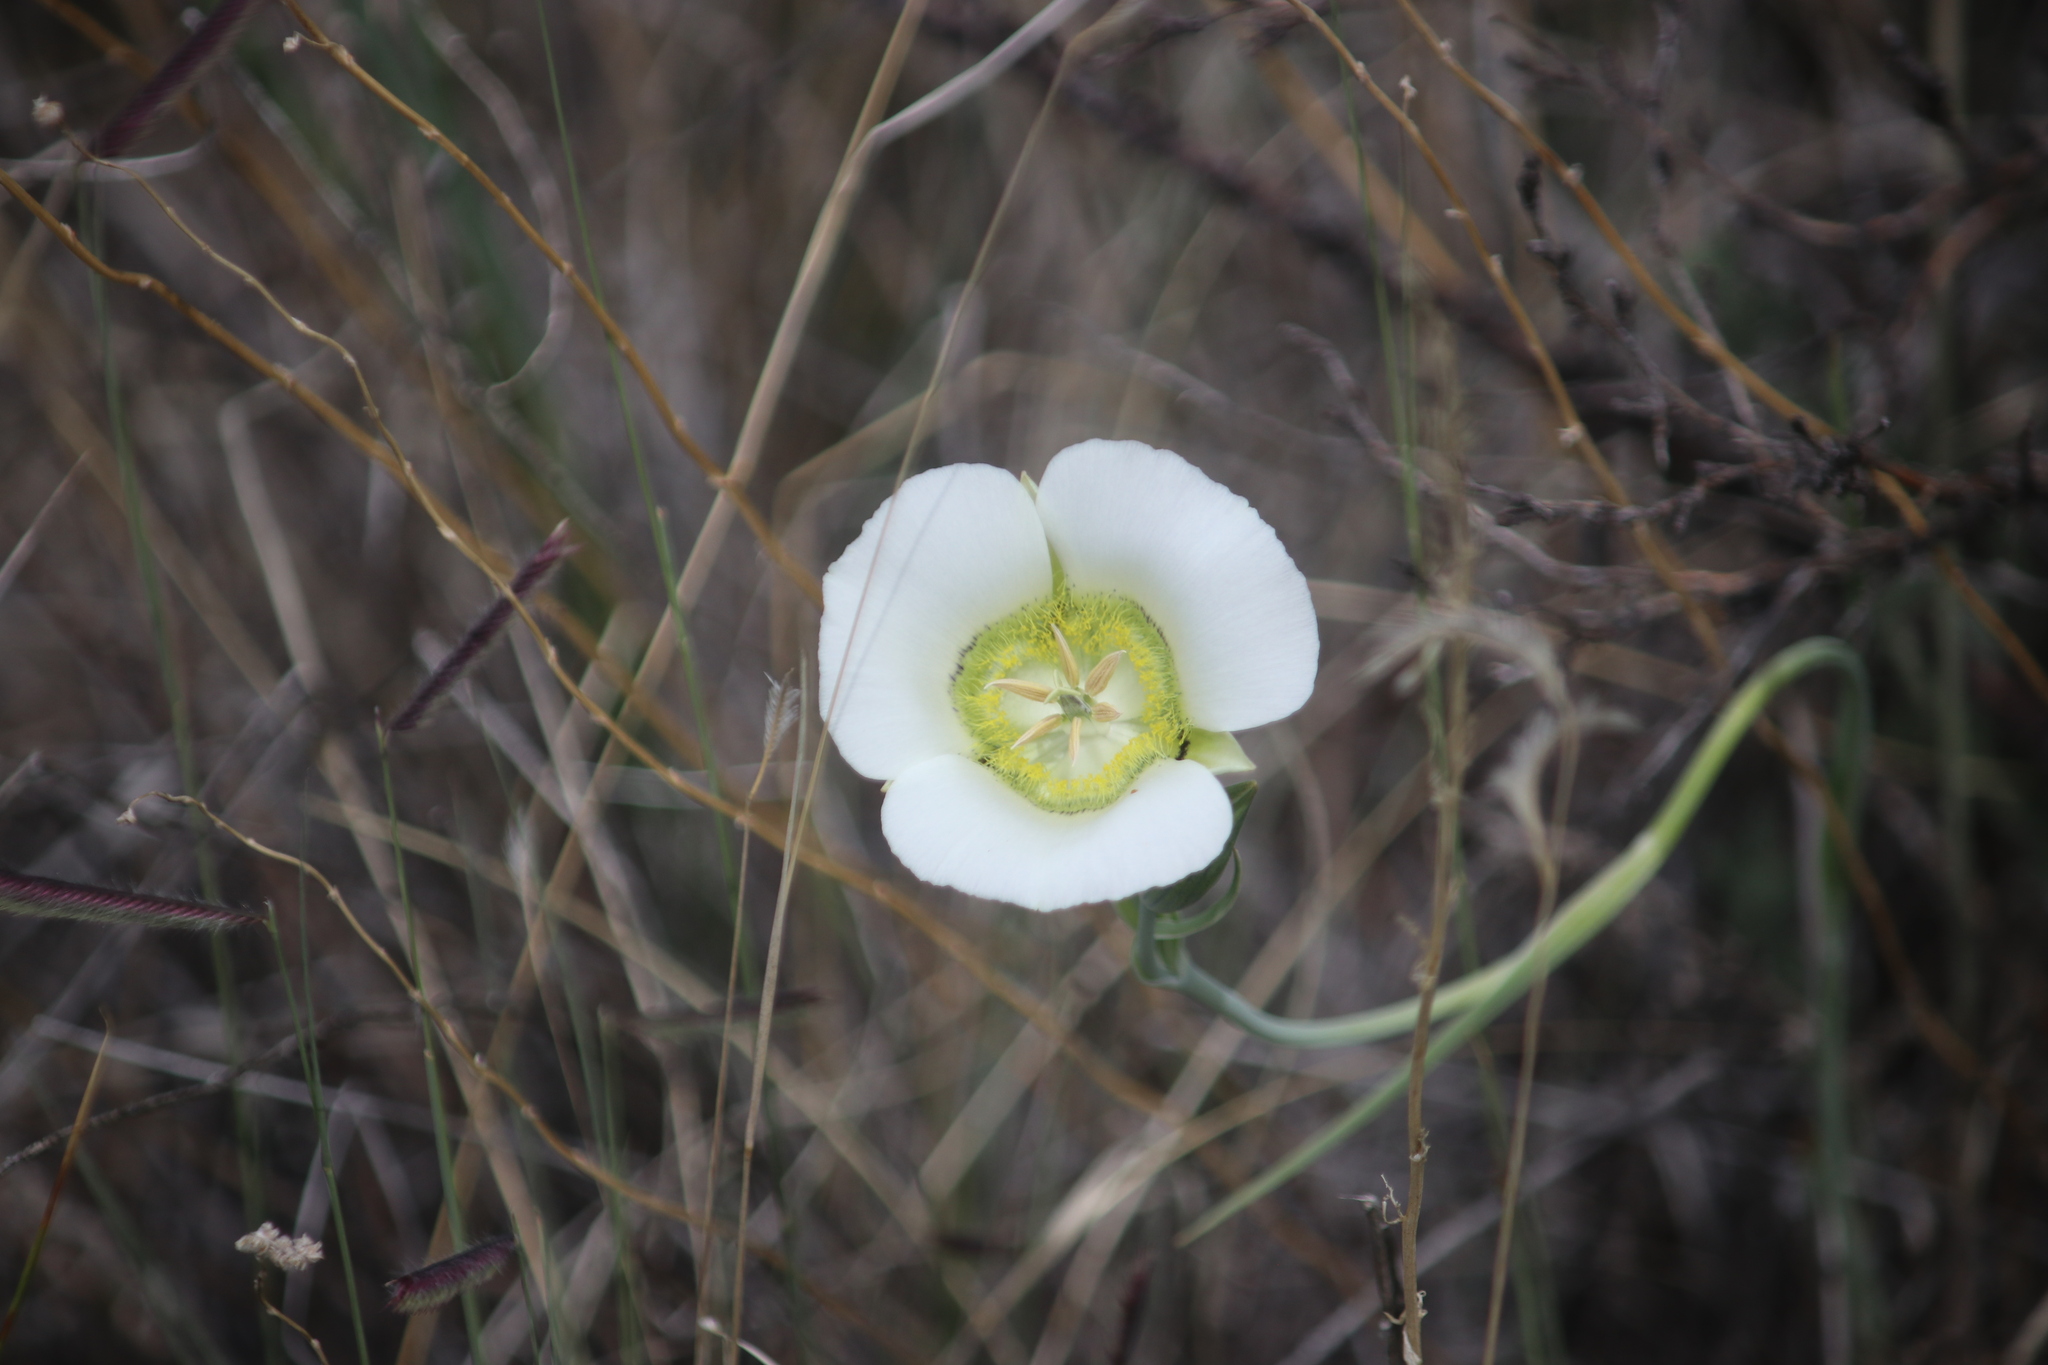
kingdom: Plantae
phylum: Tracheophyta
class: Liliopsida
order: Liliales
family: Liliaceae
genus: Calochortus
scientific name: Calochortus gunnisonii
